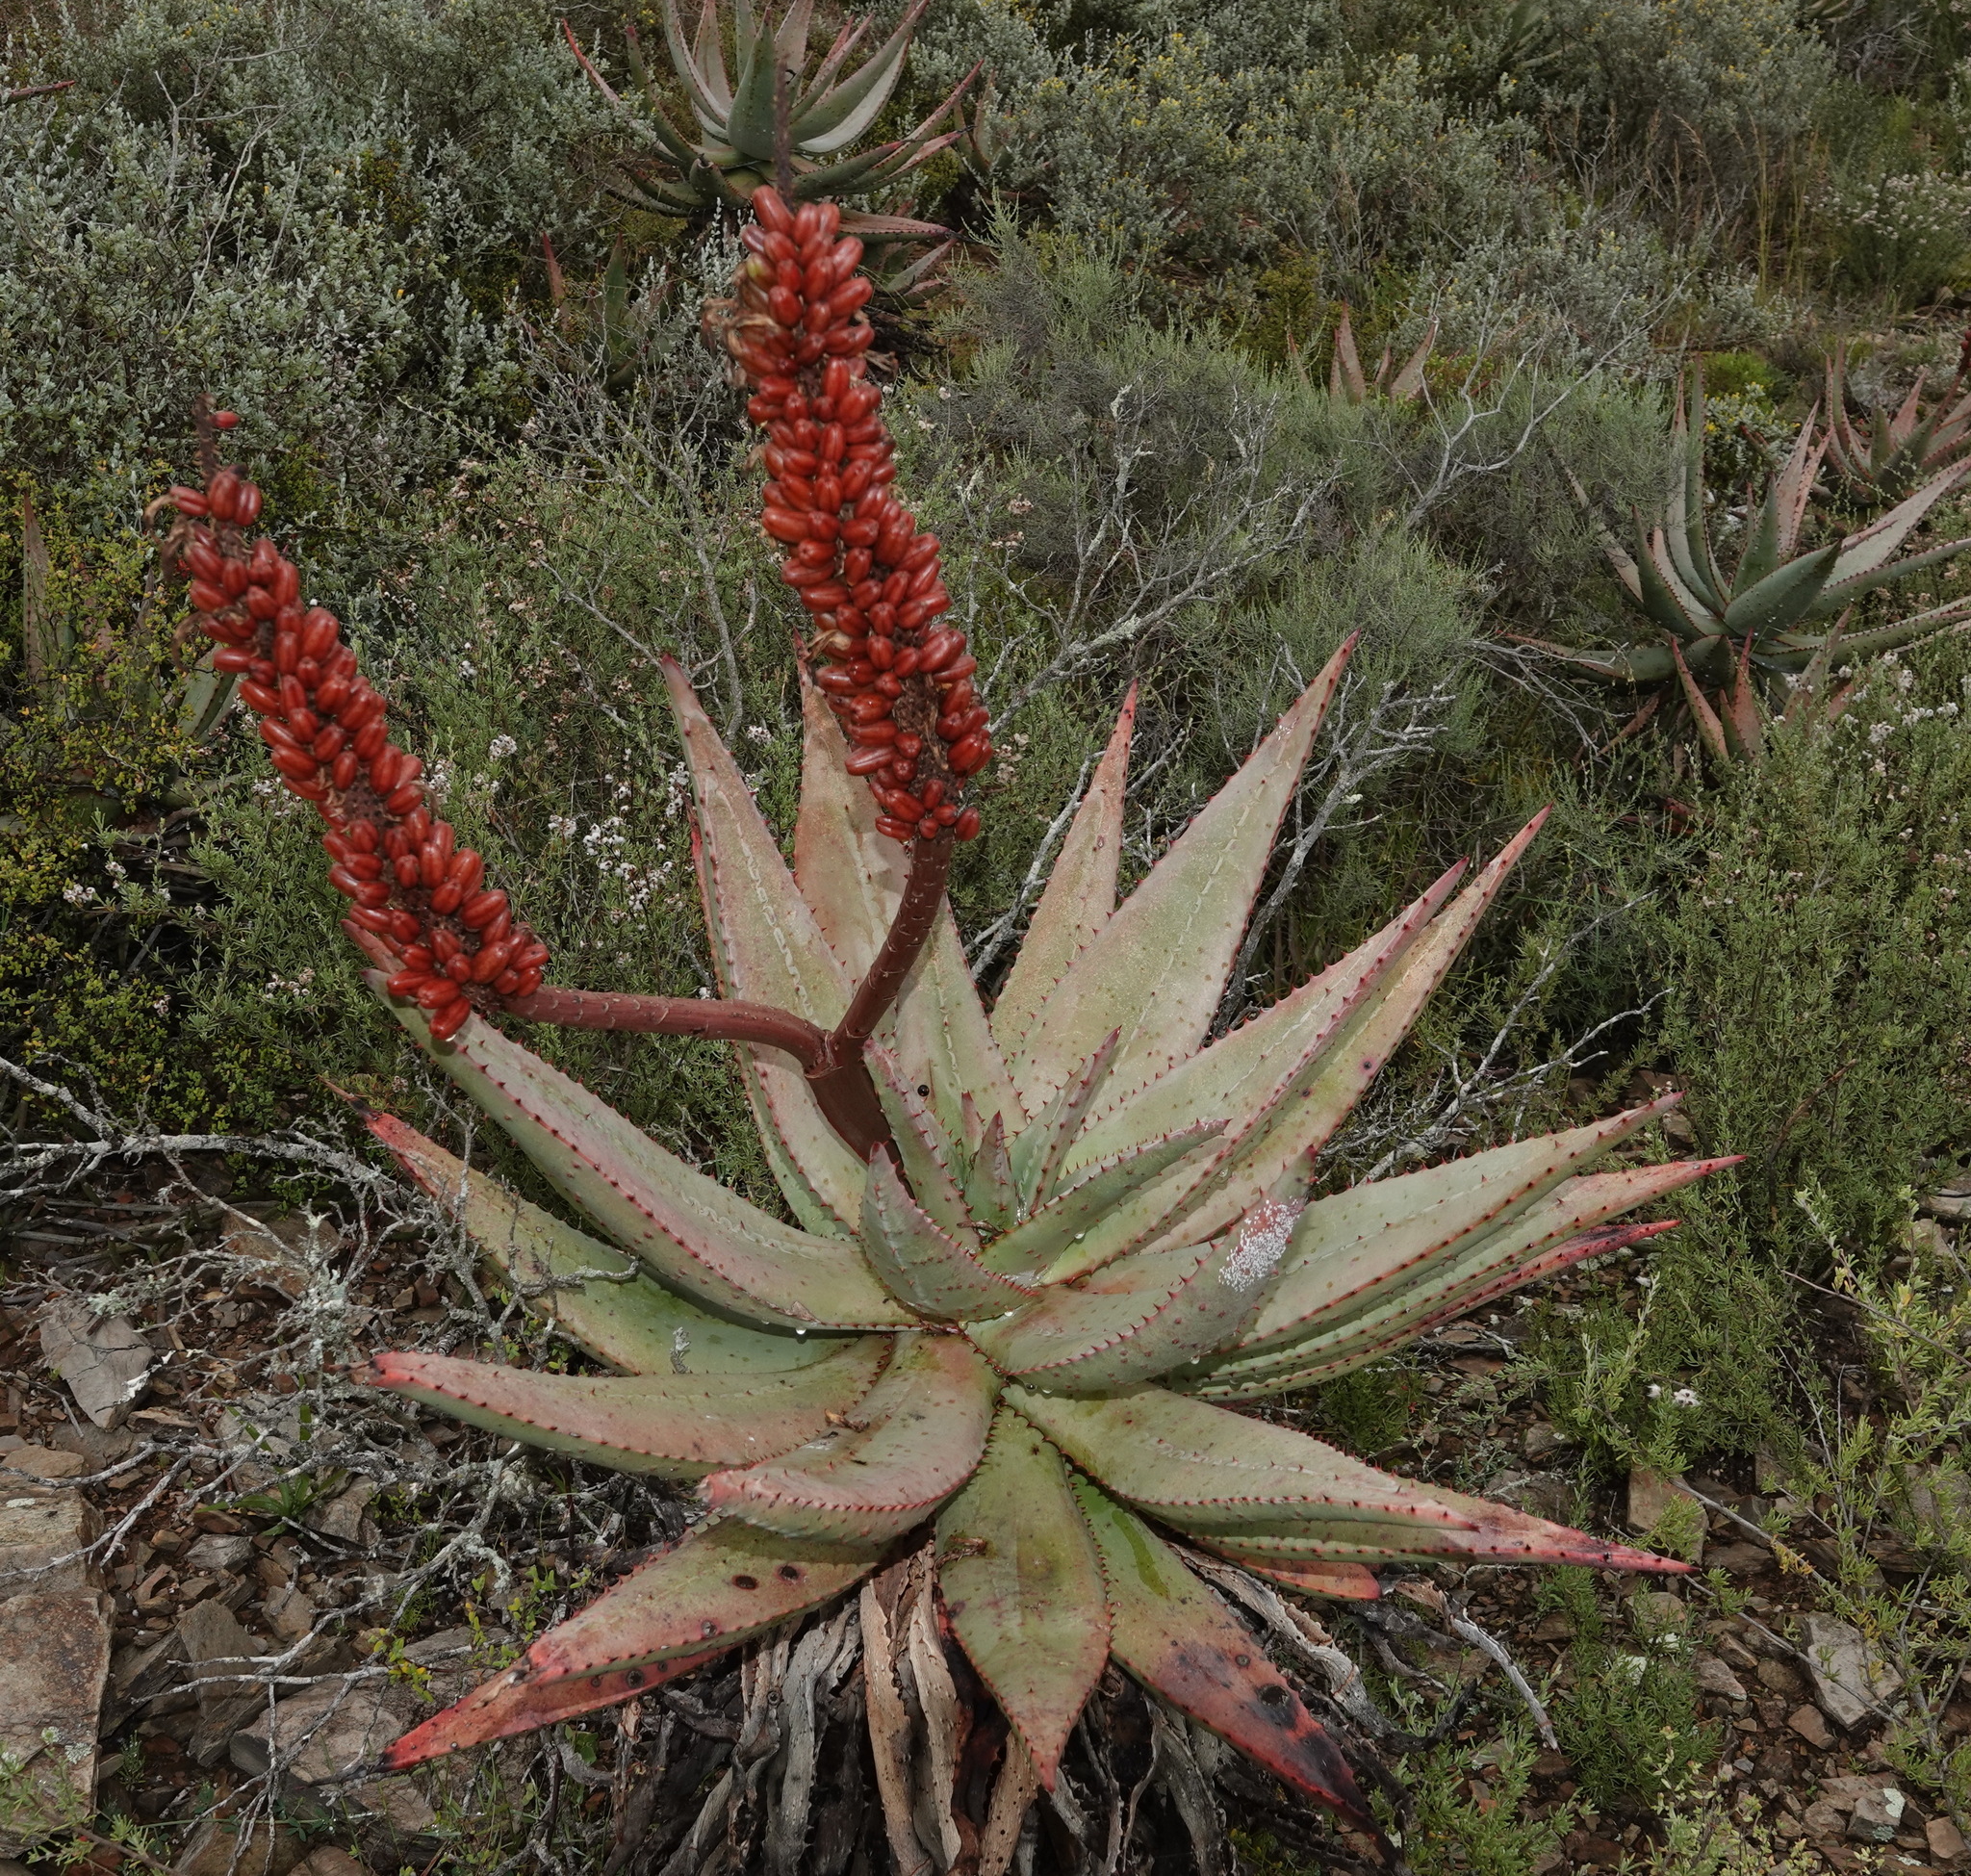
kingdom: Plantae
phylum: Tracheophyta
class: Liliopsida
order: Asparagales
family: Asphodelaceae
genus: Aloe
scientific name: Aloe ferox
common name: Bitter aloe
